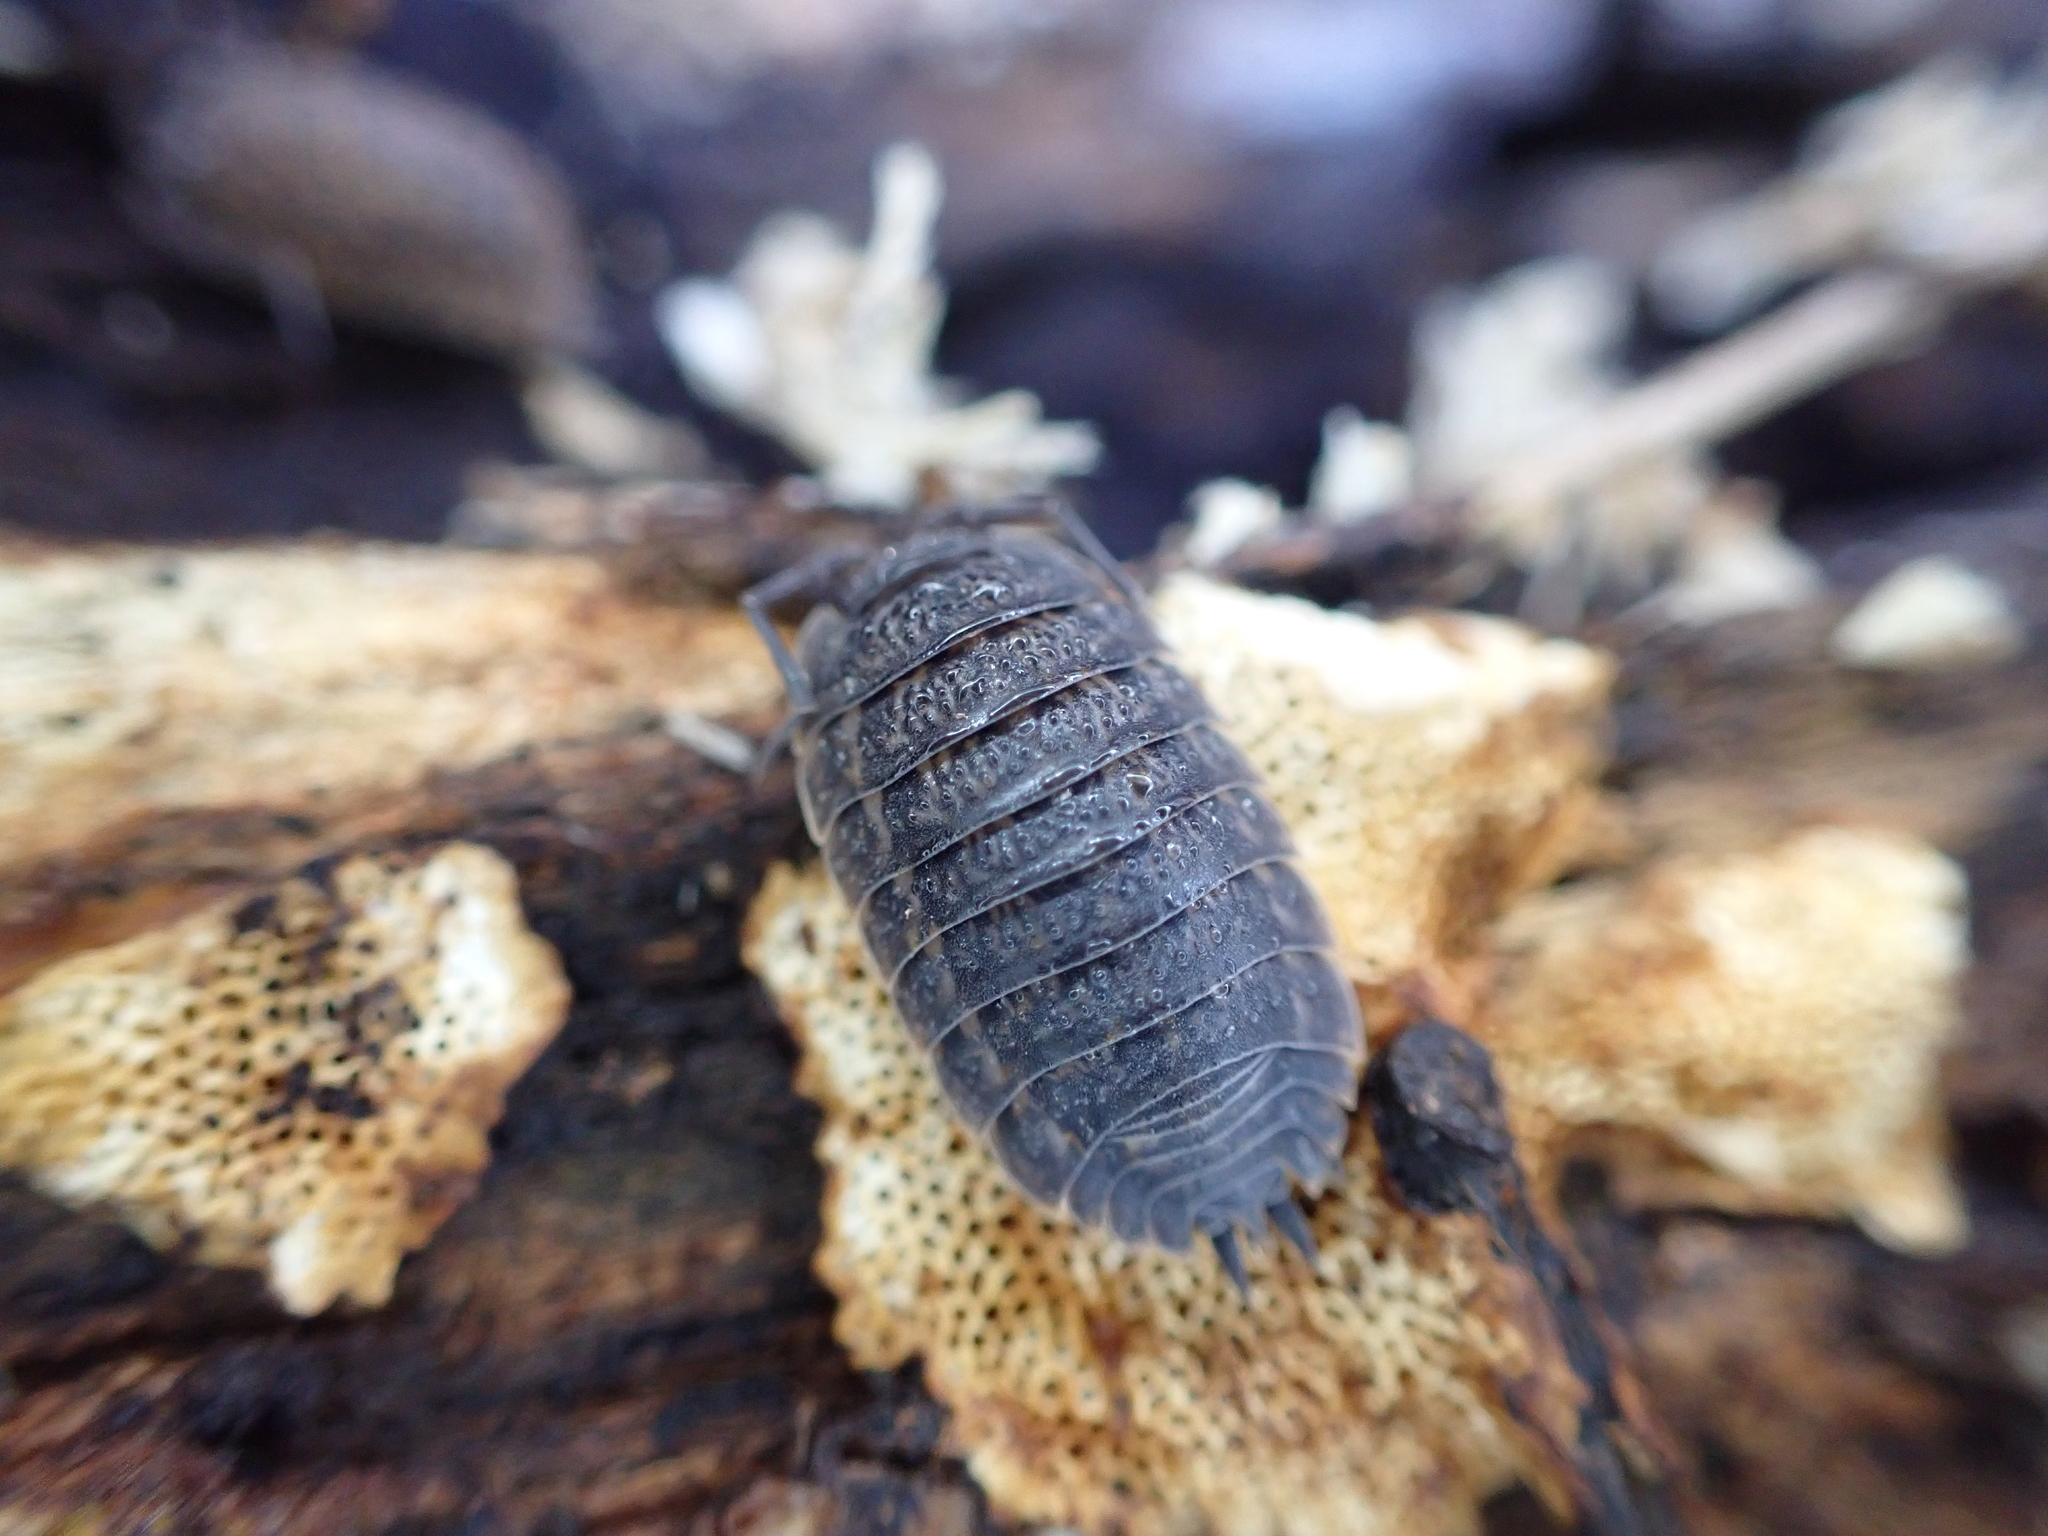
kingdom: Animalia
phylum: Arthropoda
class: Malacostraca
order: Isopoda
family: Trachelipodidae
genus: Trachelipus
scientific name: Trachelipus rathkii
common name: Isopod
